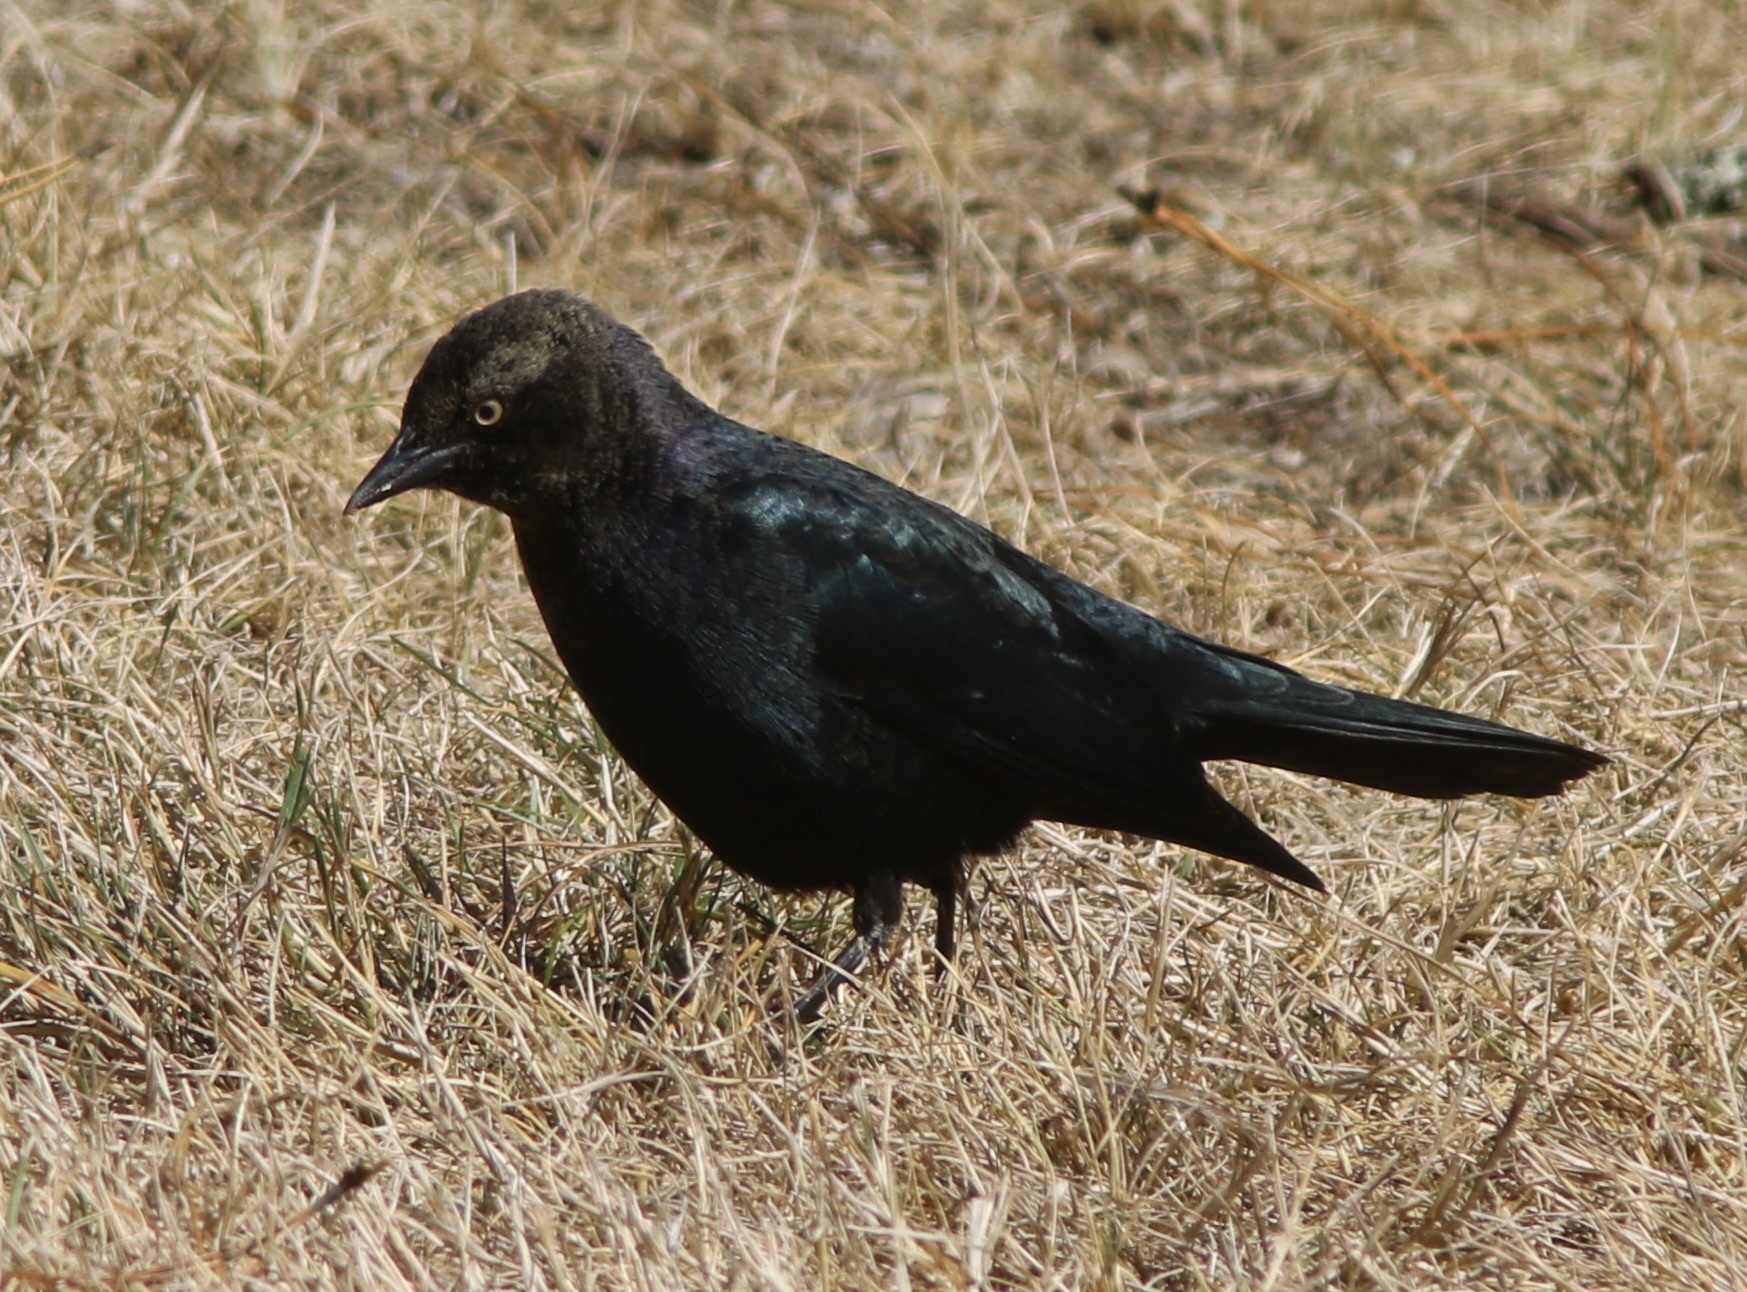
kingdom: Animalia
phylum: Chordata
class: Aves
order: Passeriformes
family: Icteridae
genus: Euphagus
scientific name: Euphagus cyanocephalus
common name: Brewer's blackbird
